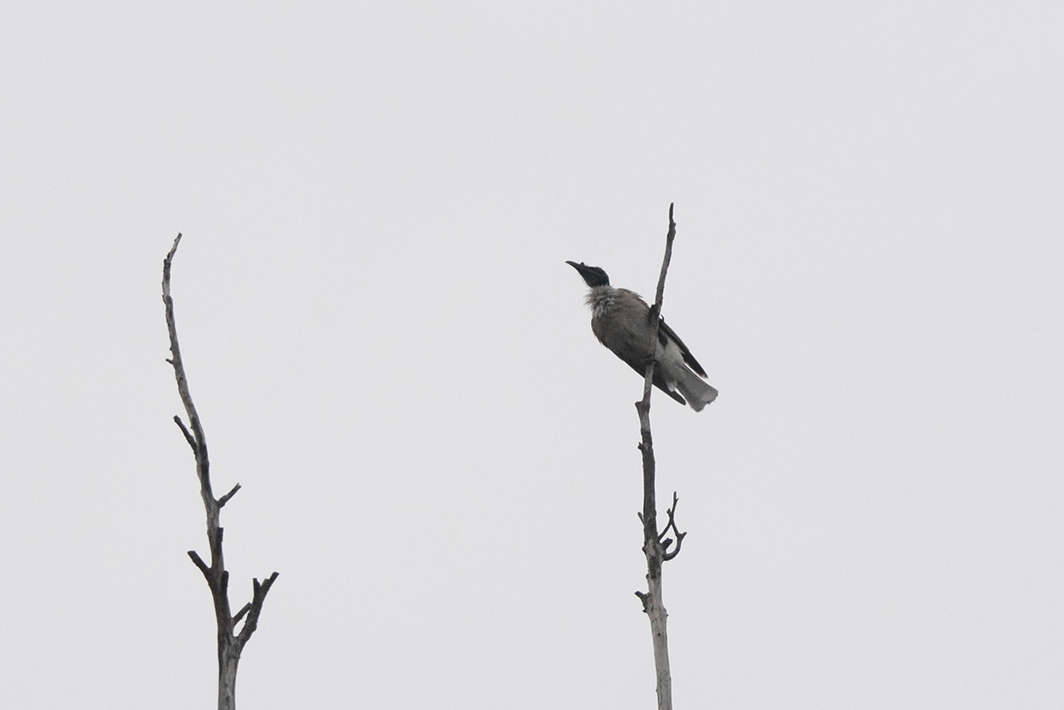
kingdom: Animalia
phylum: Chordata
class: Aves
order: Passeriformes
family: Meliphagidae
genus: Philemon
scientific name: Philemon corniculatus
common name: Noisy friarbird
